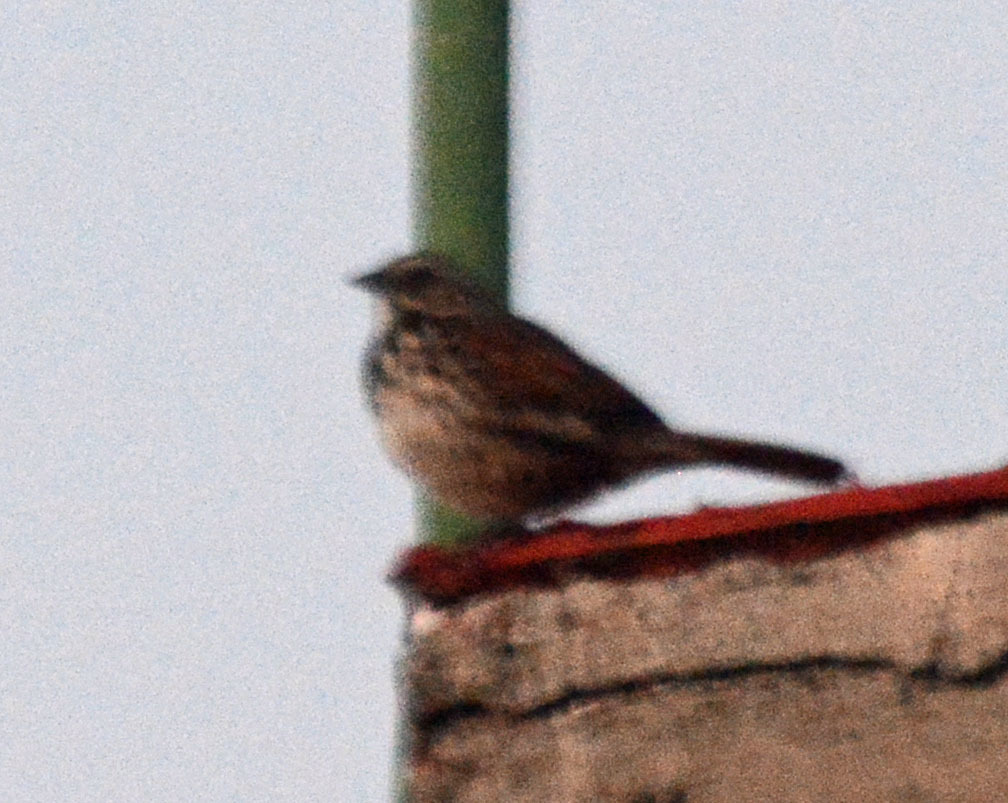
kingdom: Animalia
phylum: Chordata
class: Aves
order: Passeriformes
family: Passerellidae
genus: Melospiza
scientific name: Melospiza melodia
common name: Song sparrow
